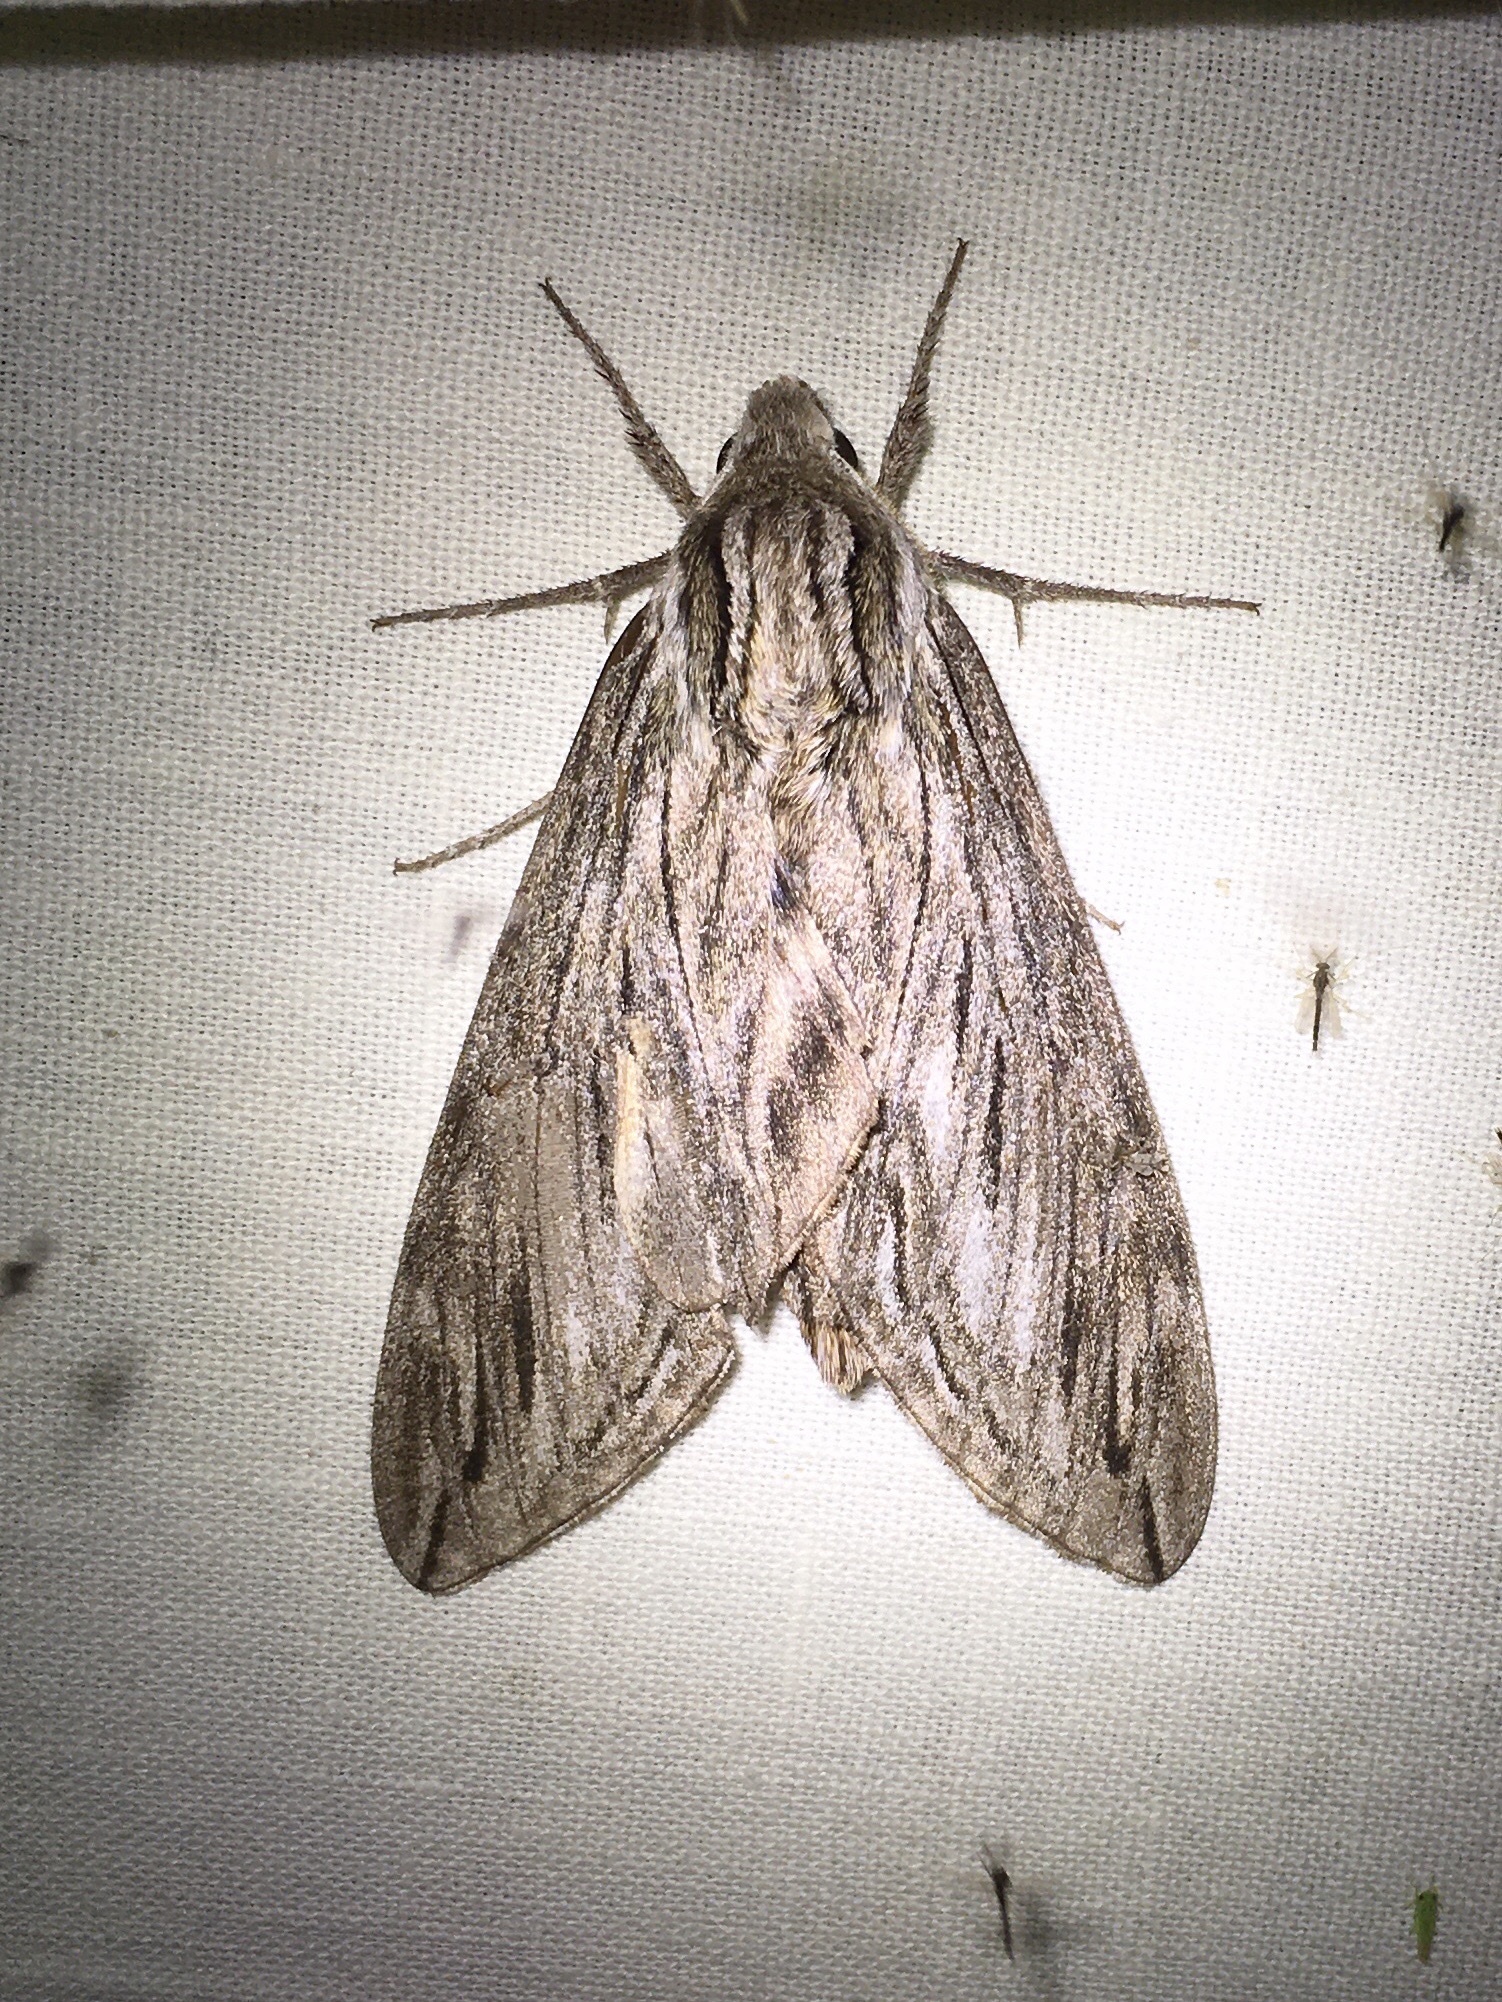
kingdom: Animalia
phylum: Arthropoda
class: Insecta
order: Lepidoptera
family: Sphingidae
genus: Sphinx
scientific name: Sphinx canadensis
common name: Canadian sphinx
